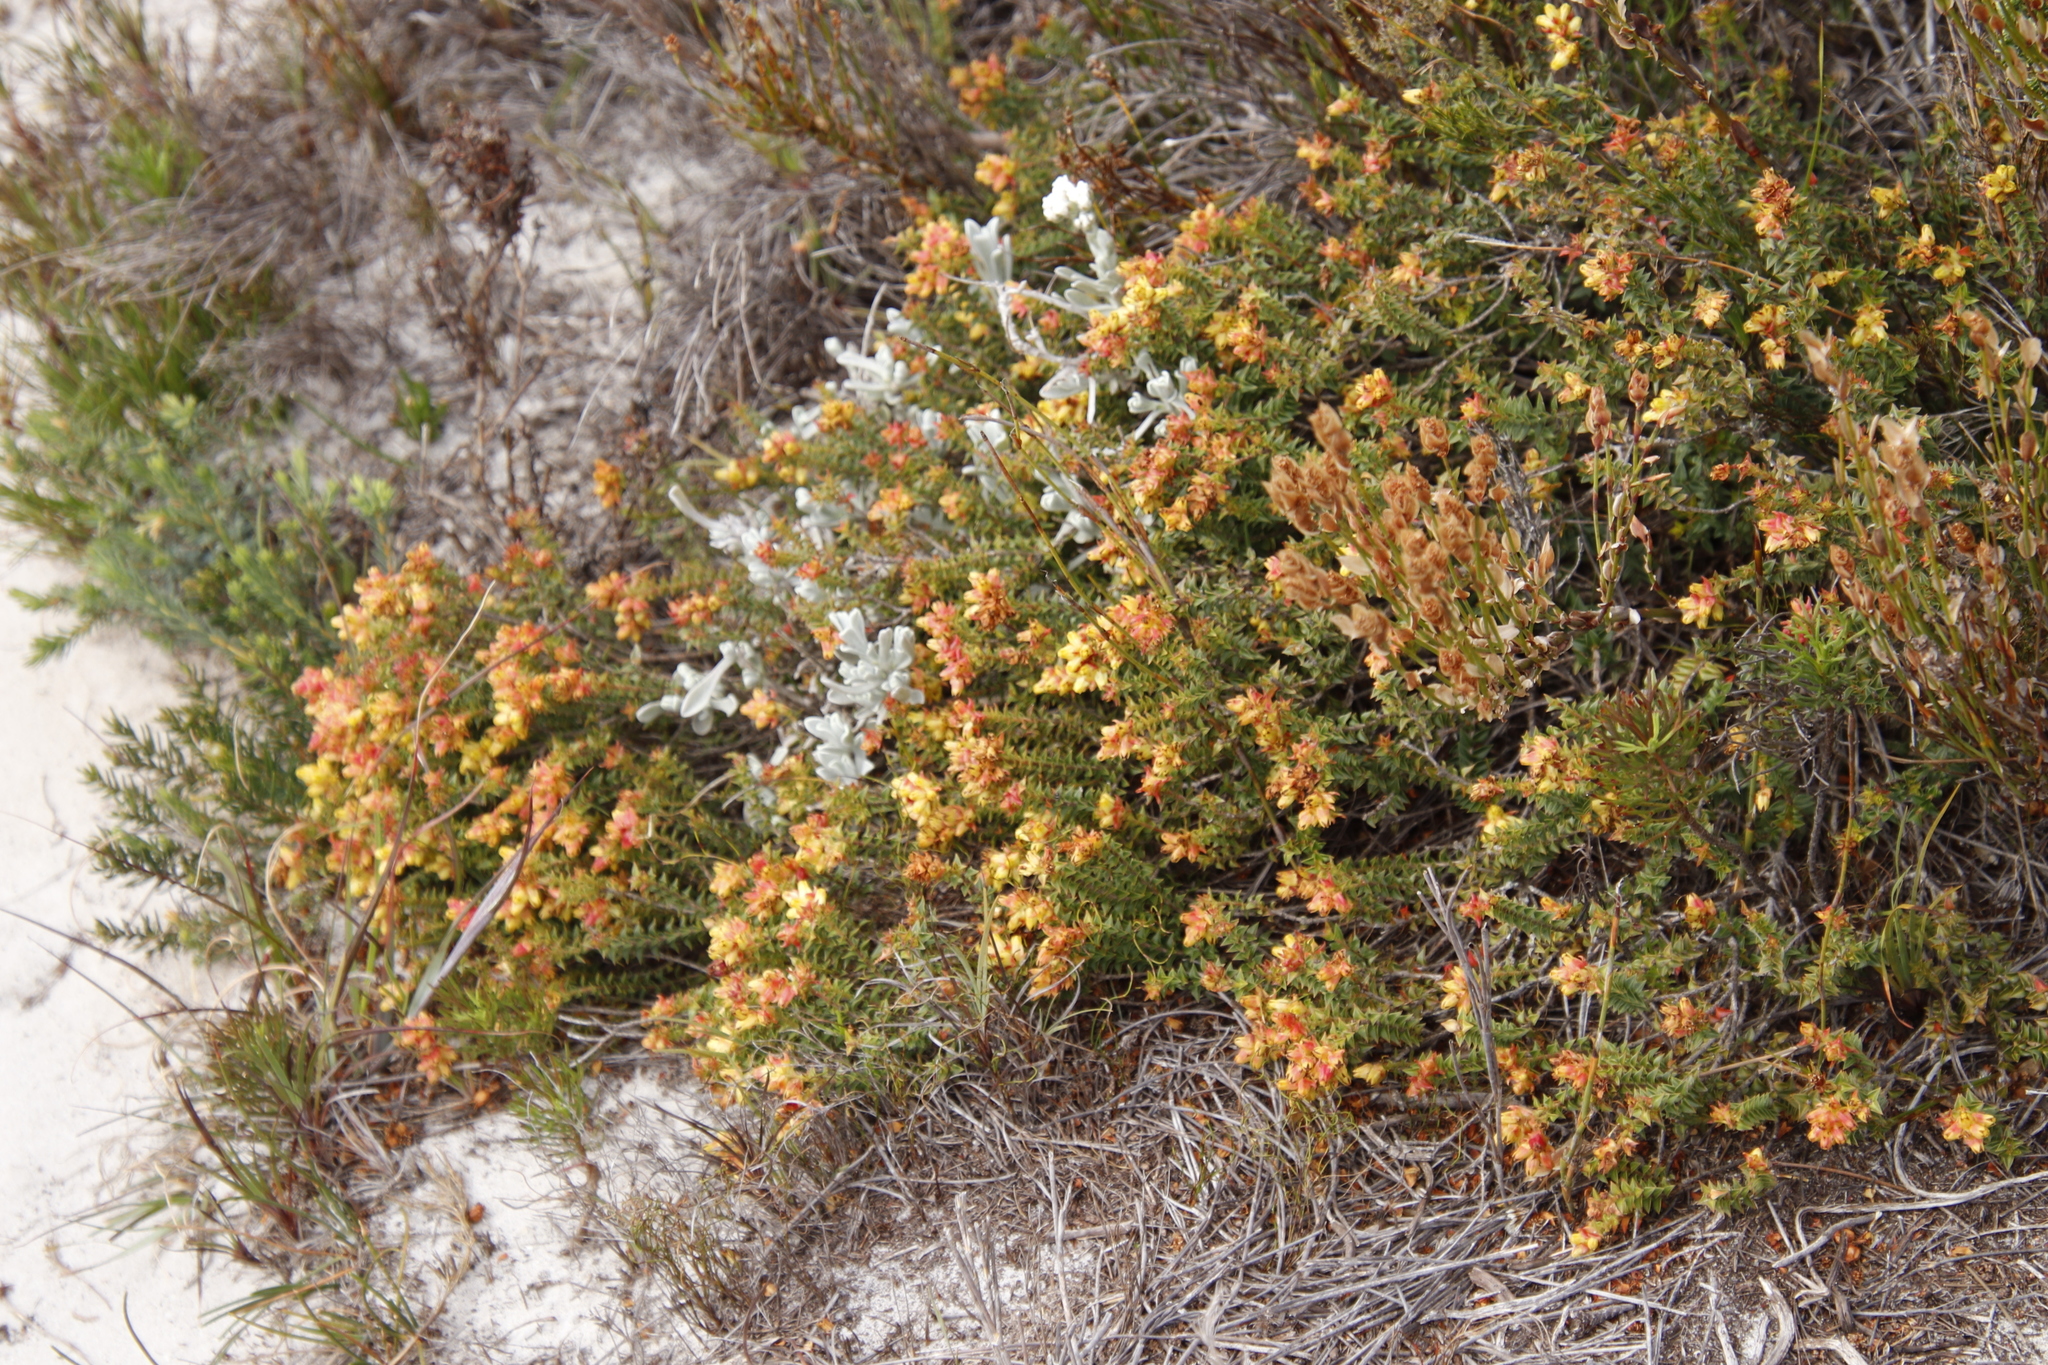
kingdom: Plantae
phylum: Tracheophyta
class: Magnoliopsida
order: Myrtales
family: Penaeaceae
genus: Penaea
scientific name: Penaea mucronata
